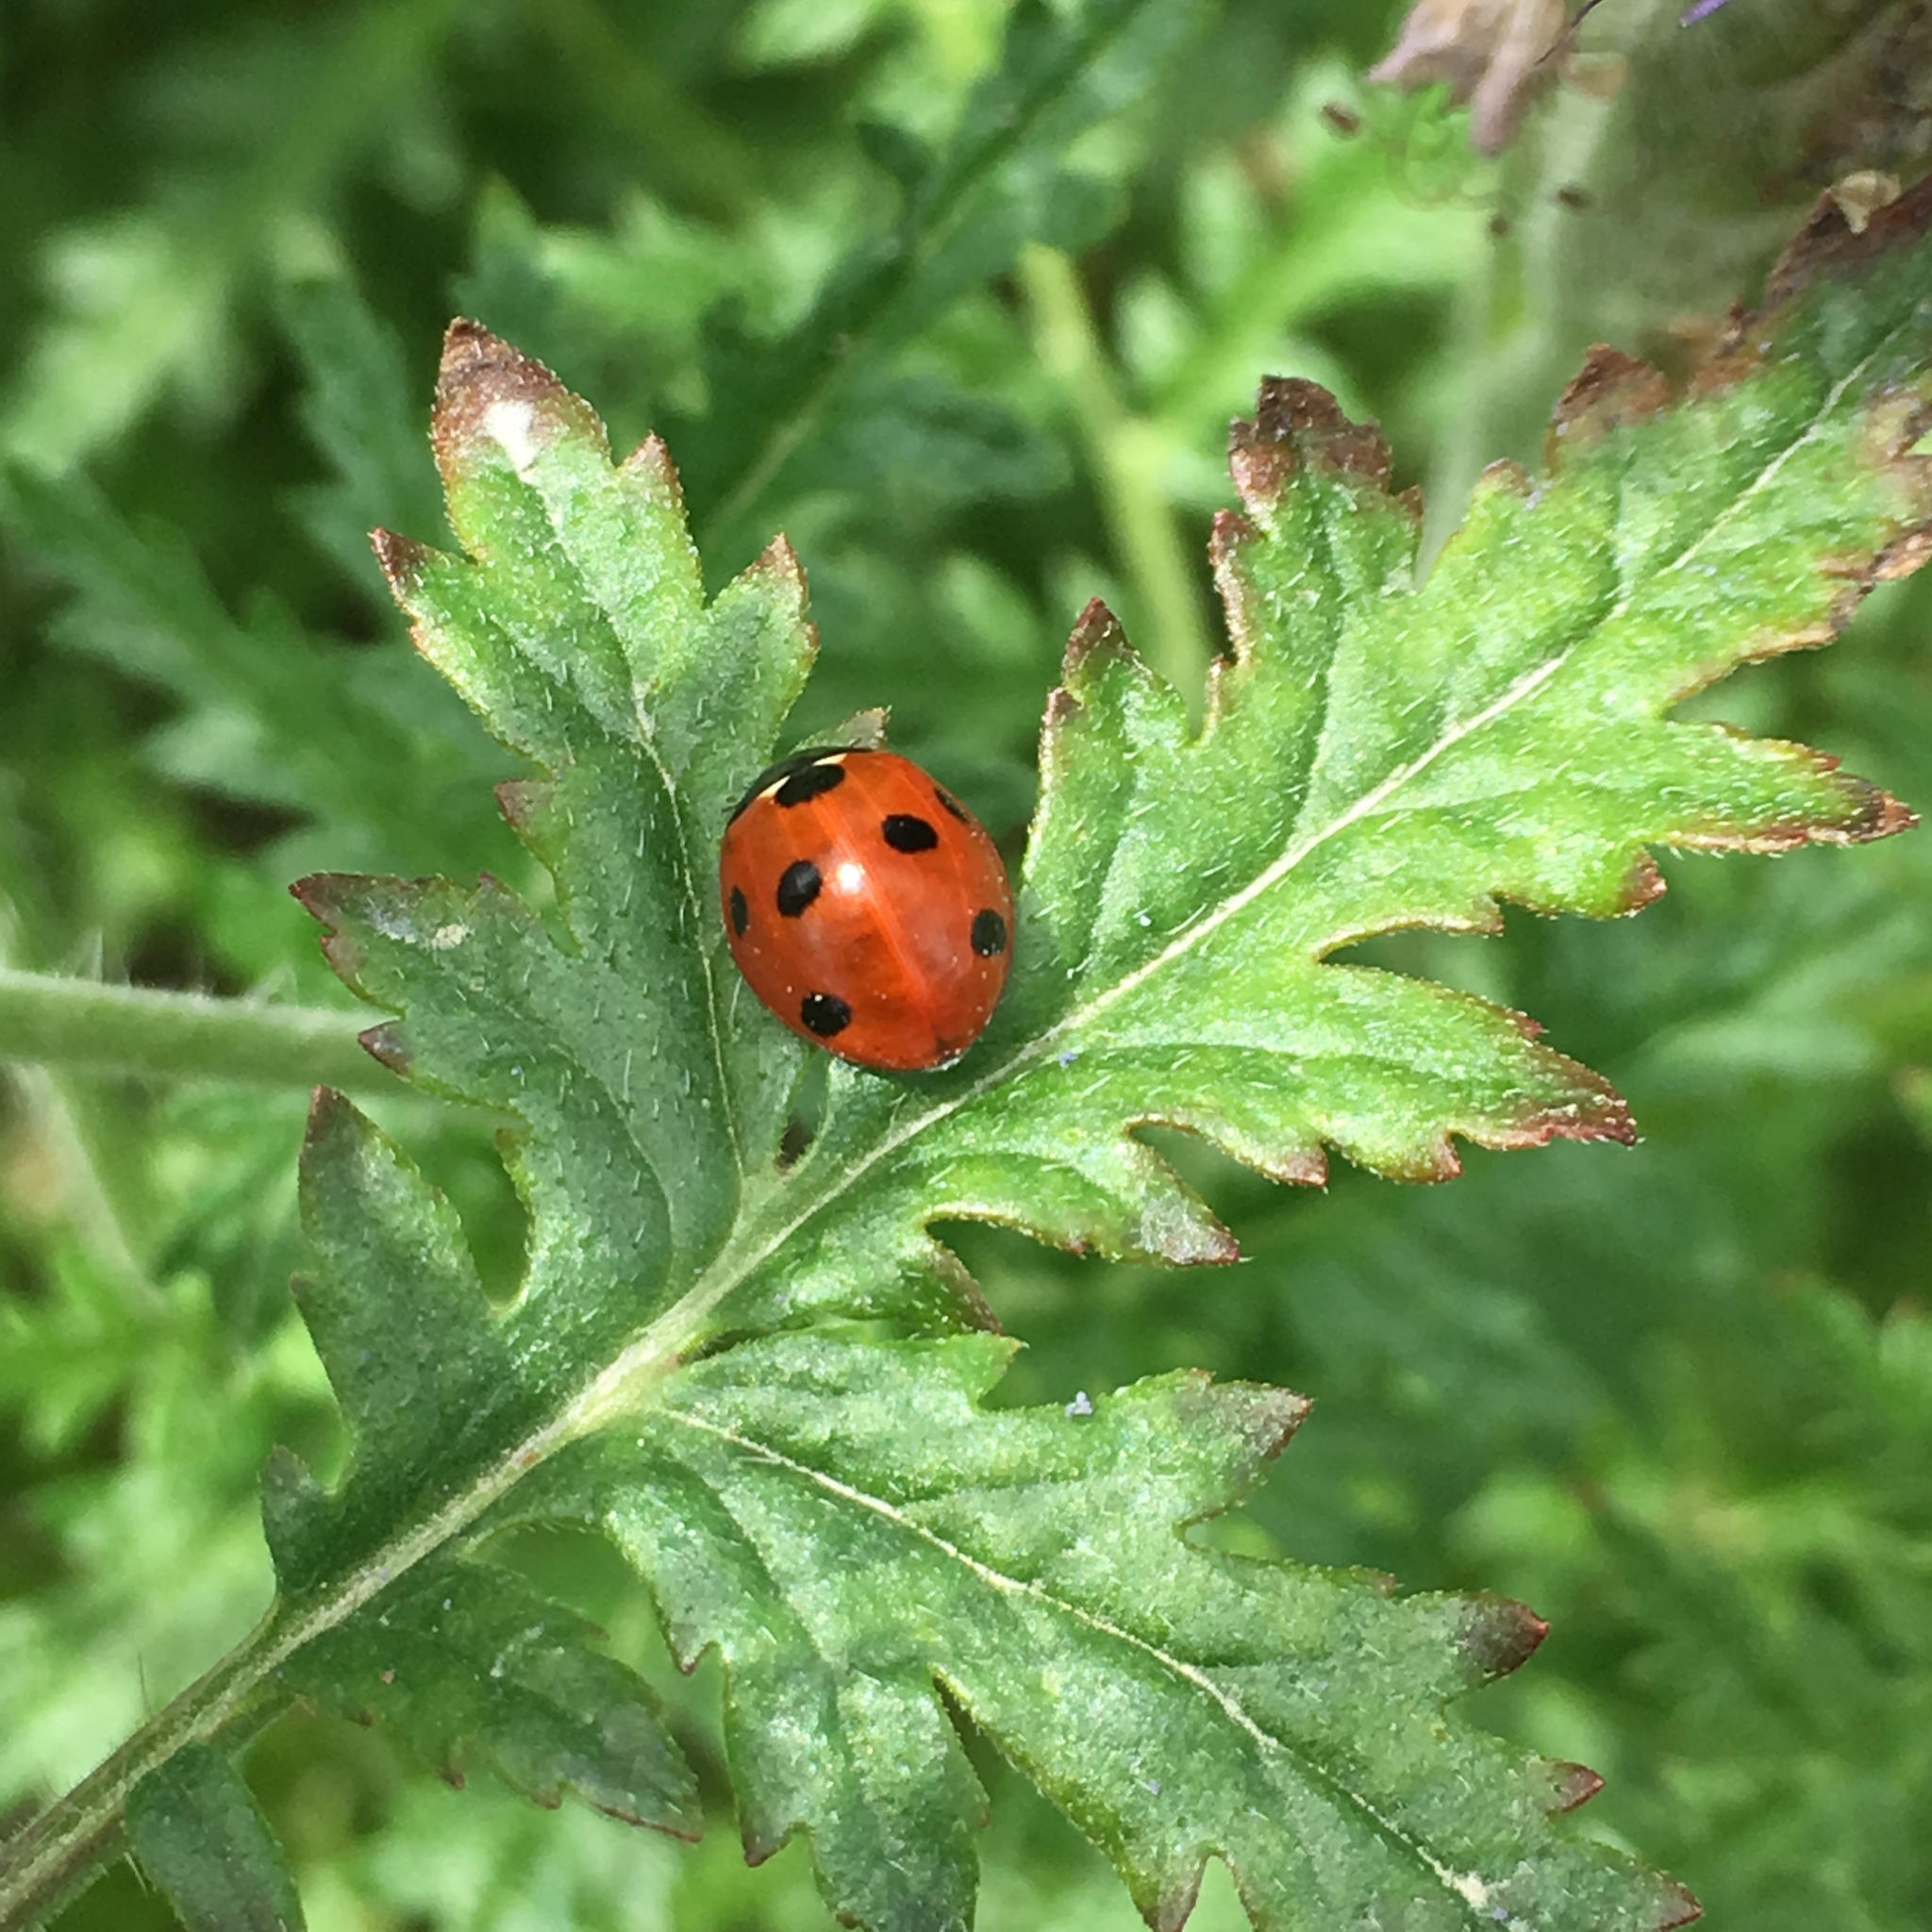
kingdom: Animalia
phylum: Arthropoda
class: Insecta
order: Coleoptera
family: Coccinellidae
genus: Coccinella
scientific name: Coccinella septempunctata
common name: Sevenspotted lady beetle
